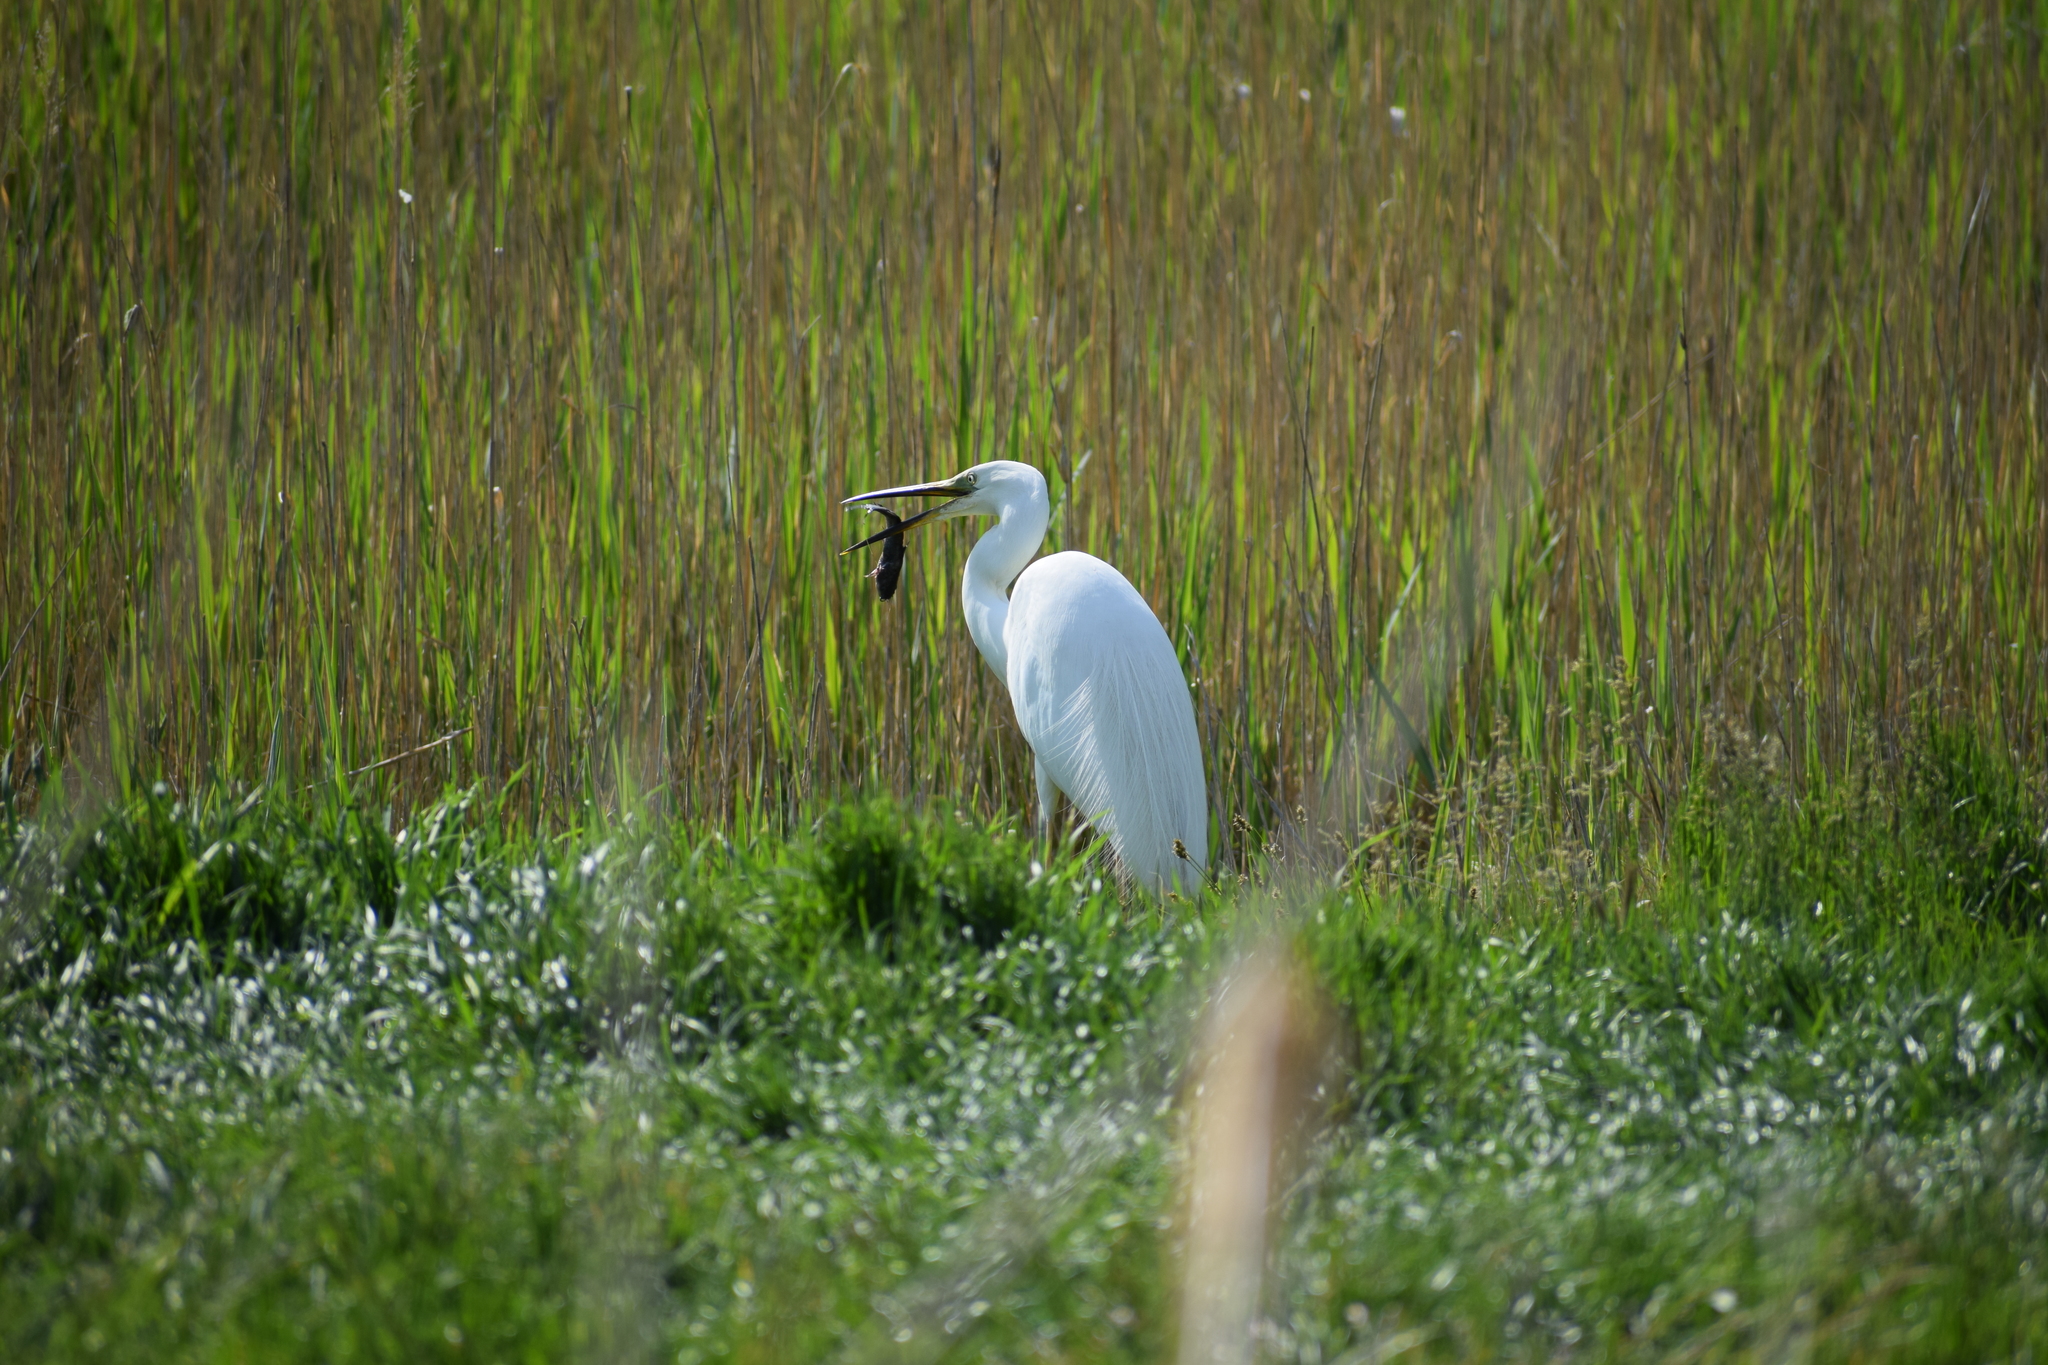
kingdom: Animalia
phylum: Chordata
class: Aves
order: Pelecaniformes
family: Ardeidae
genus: Ardea
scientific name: Ardea alba
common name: Great egret
